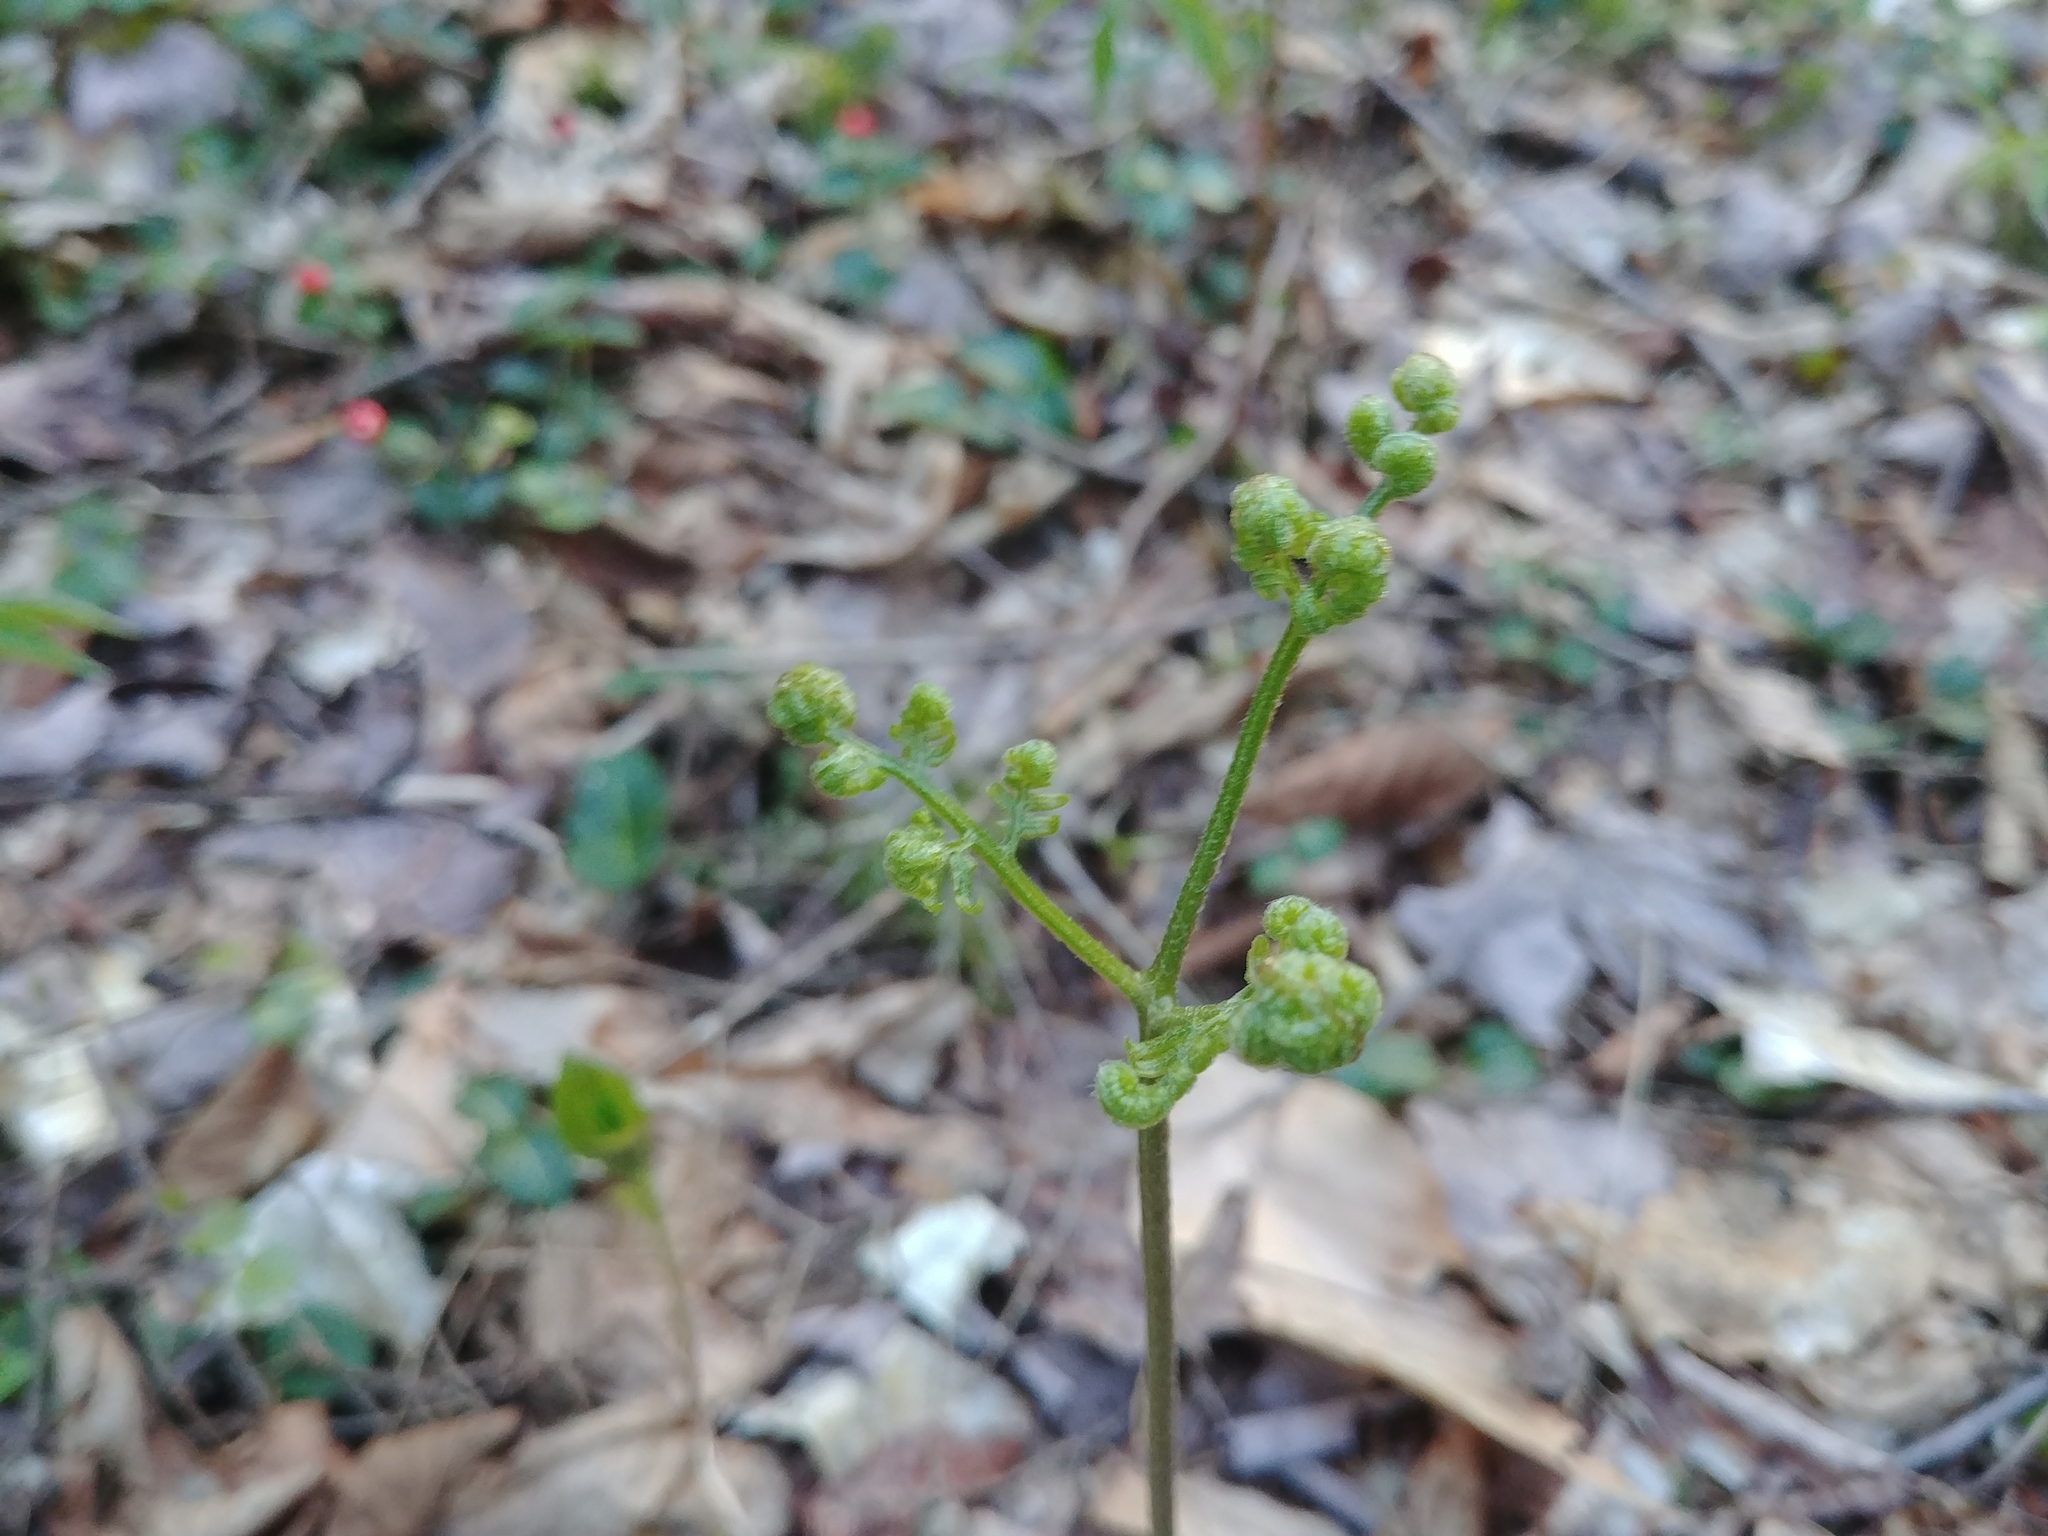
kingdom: Plantae
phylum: Tracheophyta
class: Polypodiopsida
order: Polypodiales
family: Dennstaedtiaceae
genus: Pteridium
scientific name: Pteridium aquilinum
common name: Bracken
